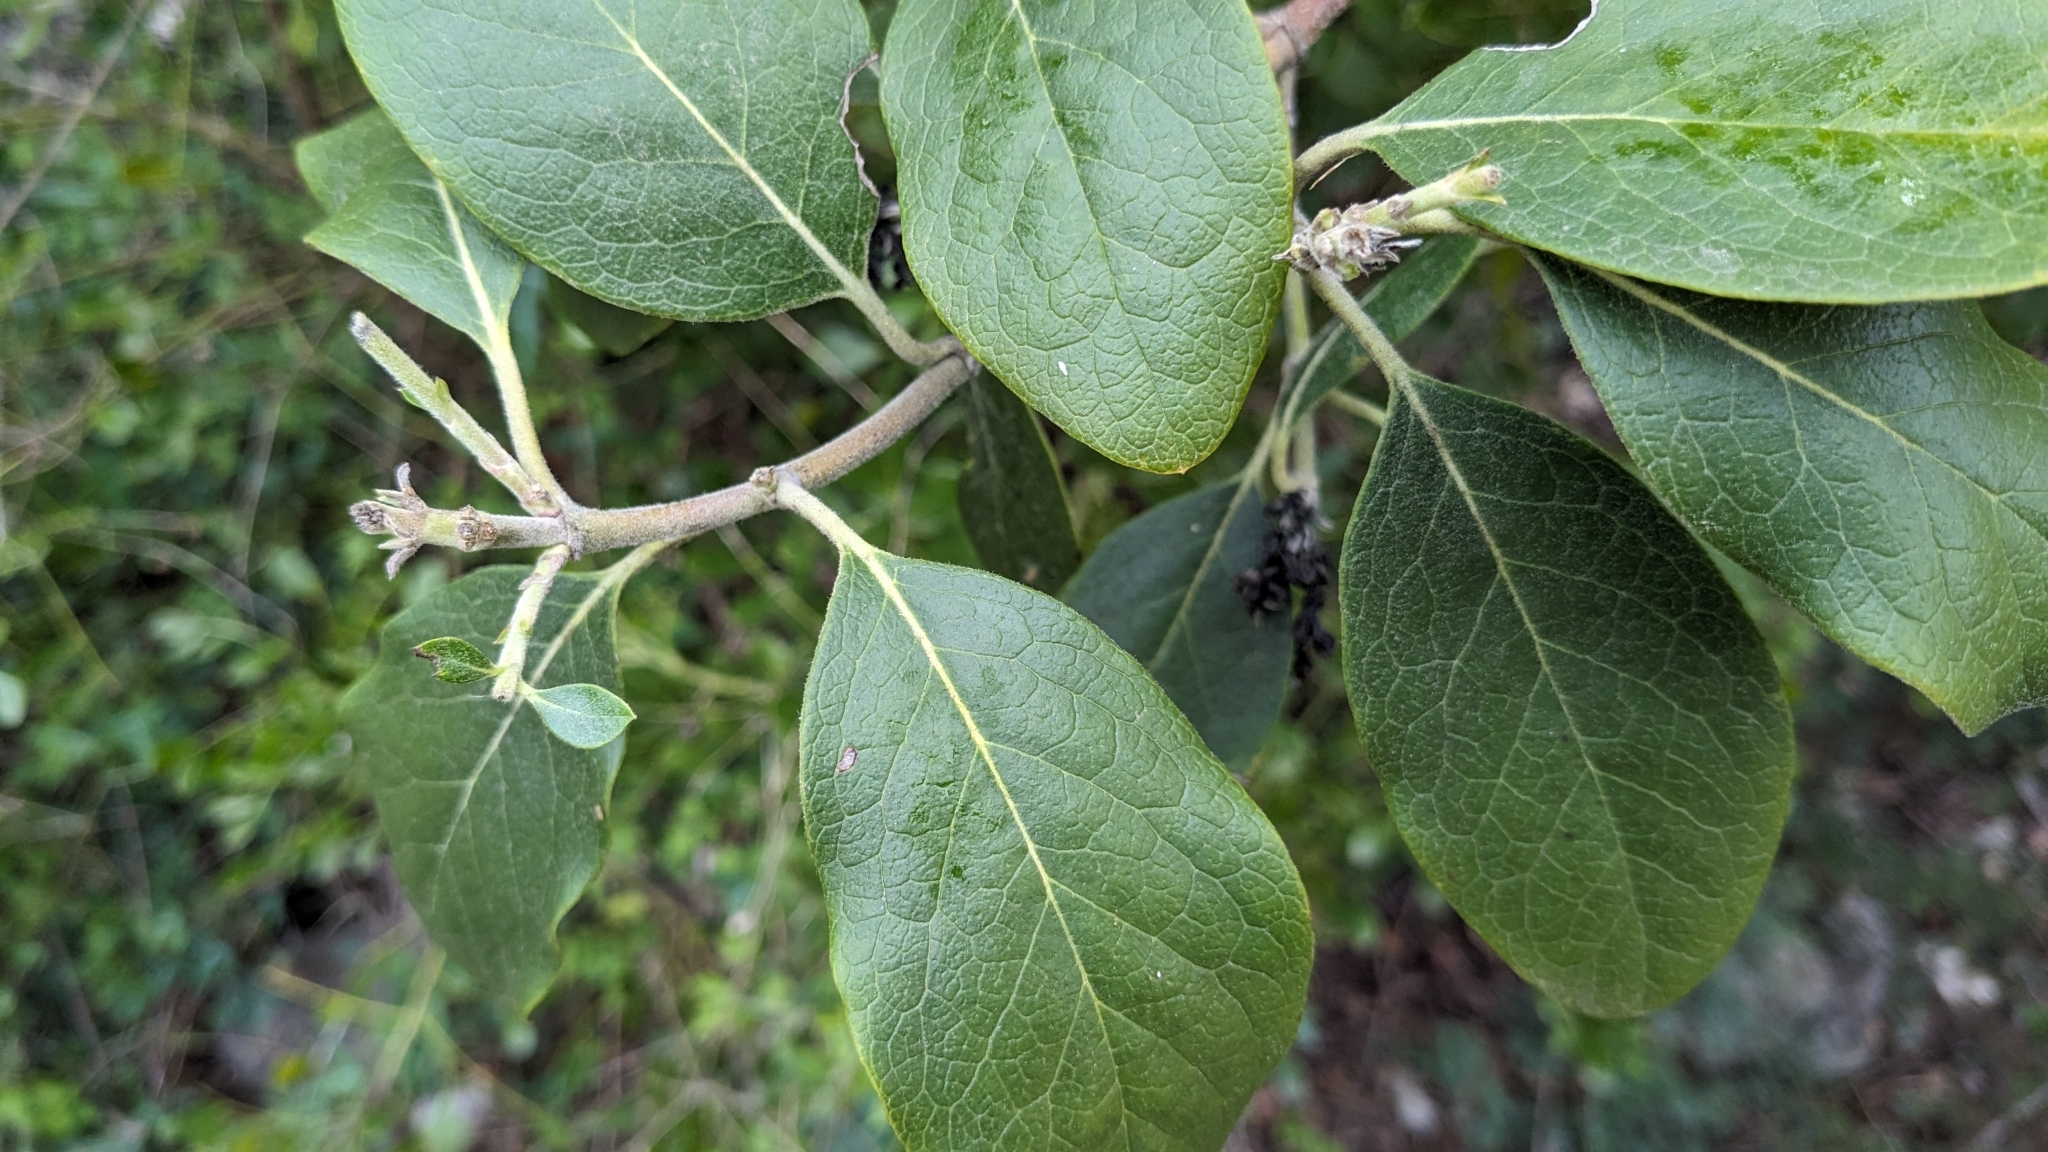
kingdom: Plantae
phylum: Tracheophyta
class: Magnoliopsida
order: Garryales
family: Garryaceae
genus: Garrya
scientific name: Garrya lindheimeri
